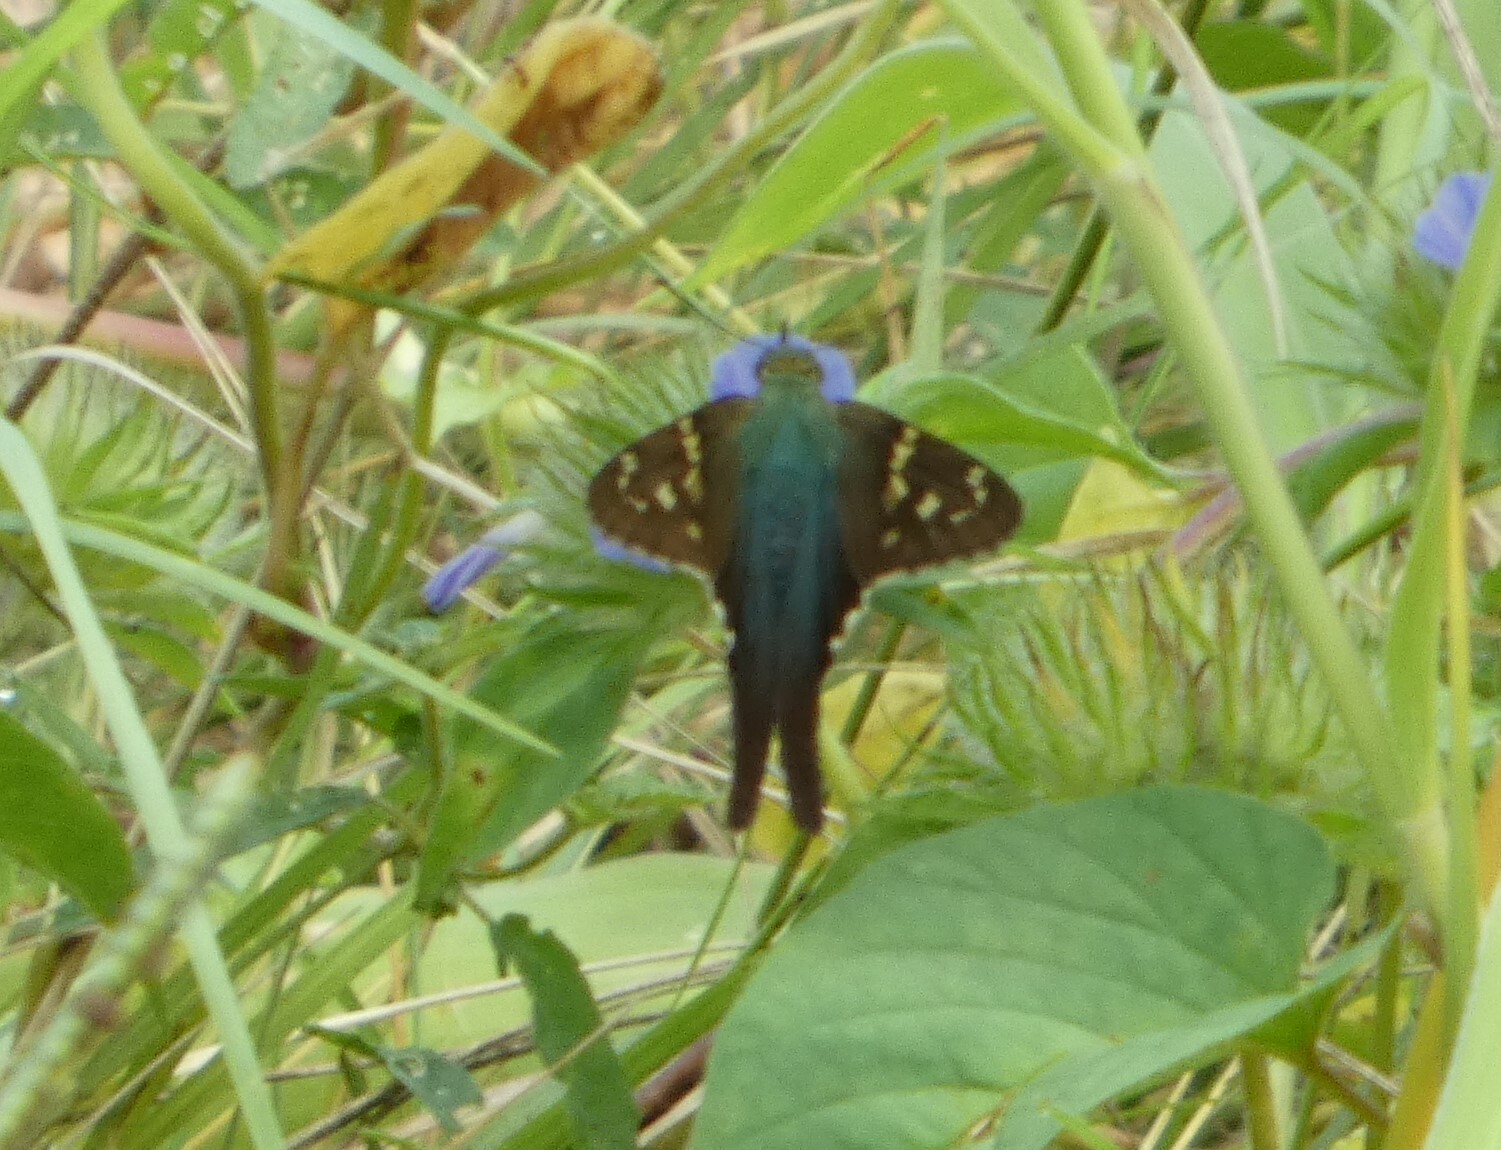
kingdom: Animalia
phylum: Arthropoda
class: Insecta
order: Lepidoptera
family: Hesperiidae
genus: Urbanus
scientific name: Urbanus proteus
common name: Long-tailed skipper
